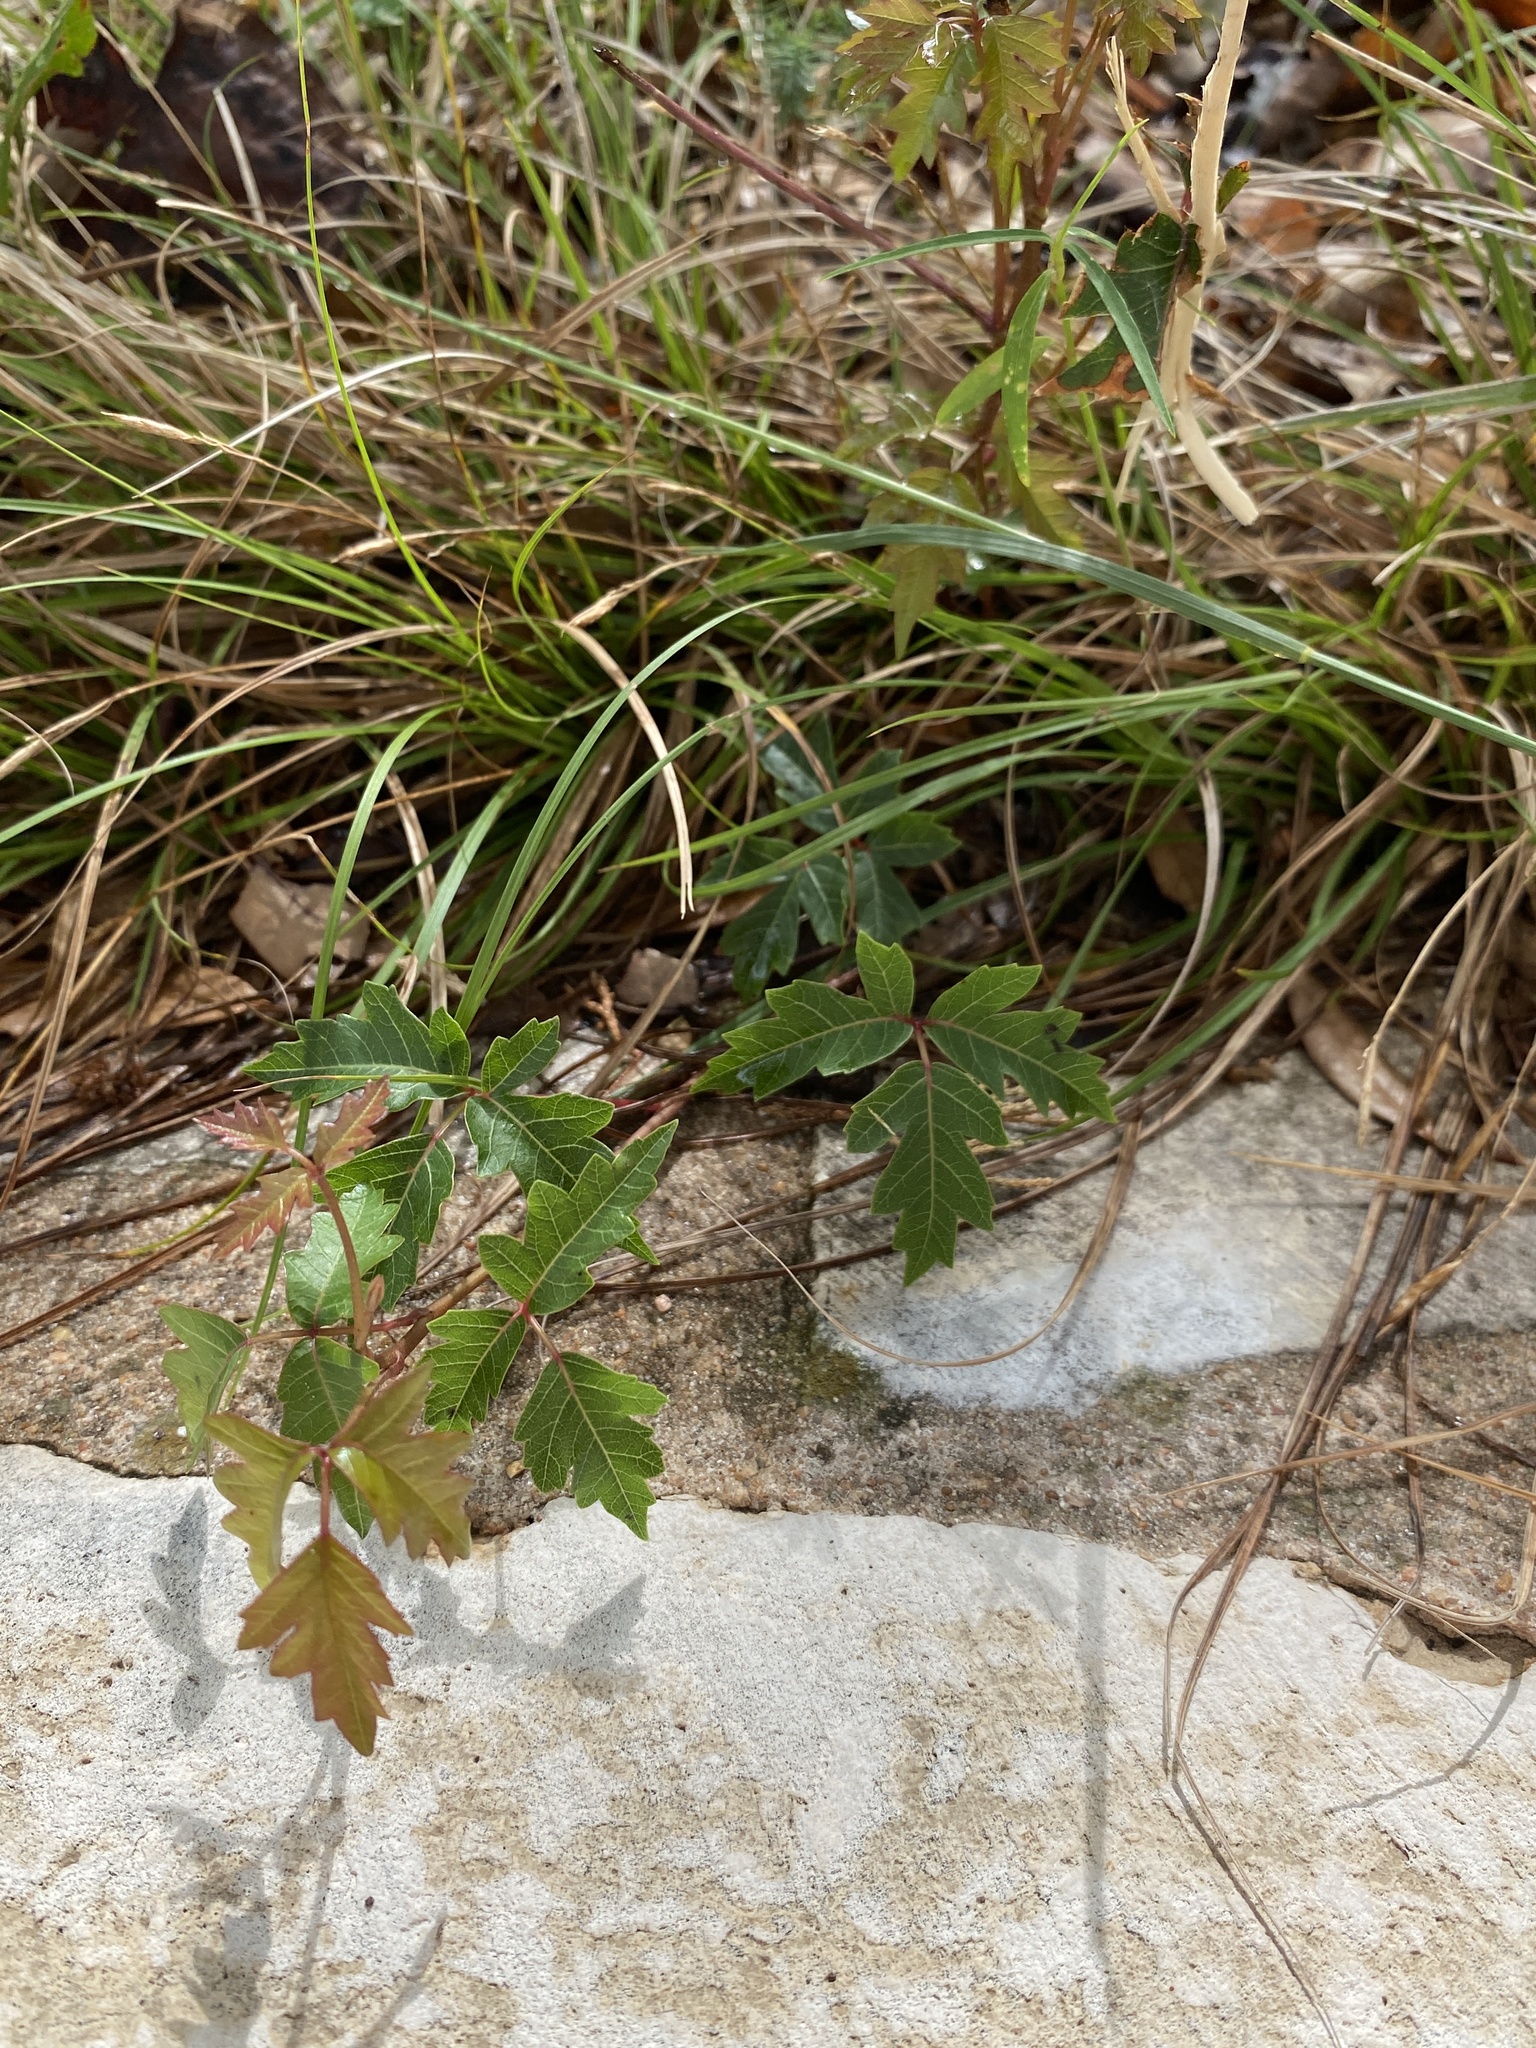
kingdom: Plantae
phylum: Tracheophyta
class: Magnoliopsida
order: Sapindales
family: Anacardiaceae
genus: Toxicodendron
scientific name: Toxicodendron radicans
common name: Poison ivy
